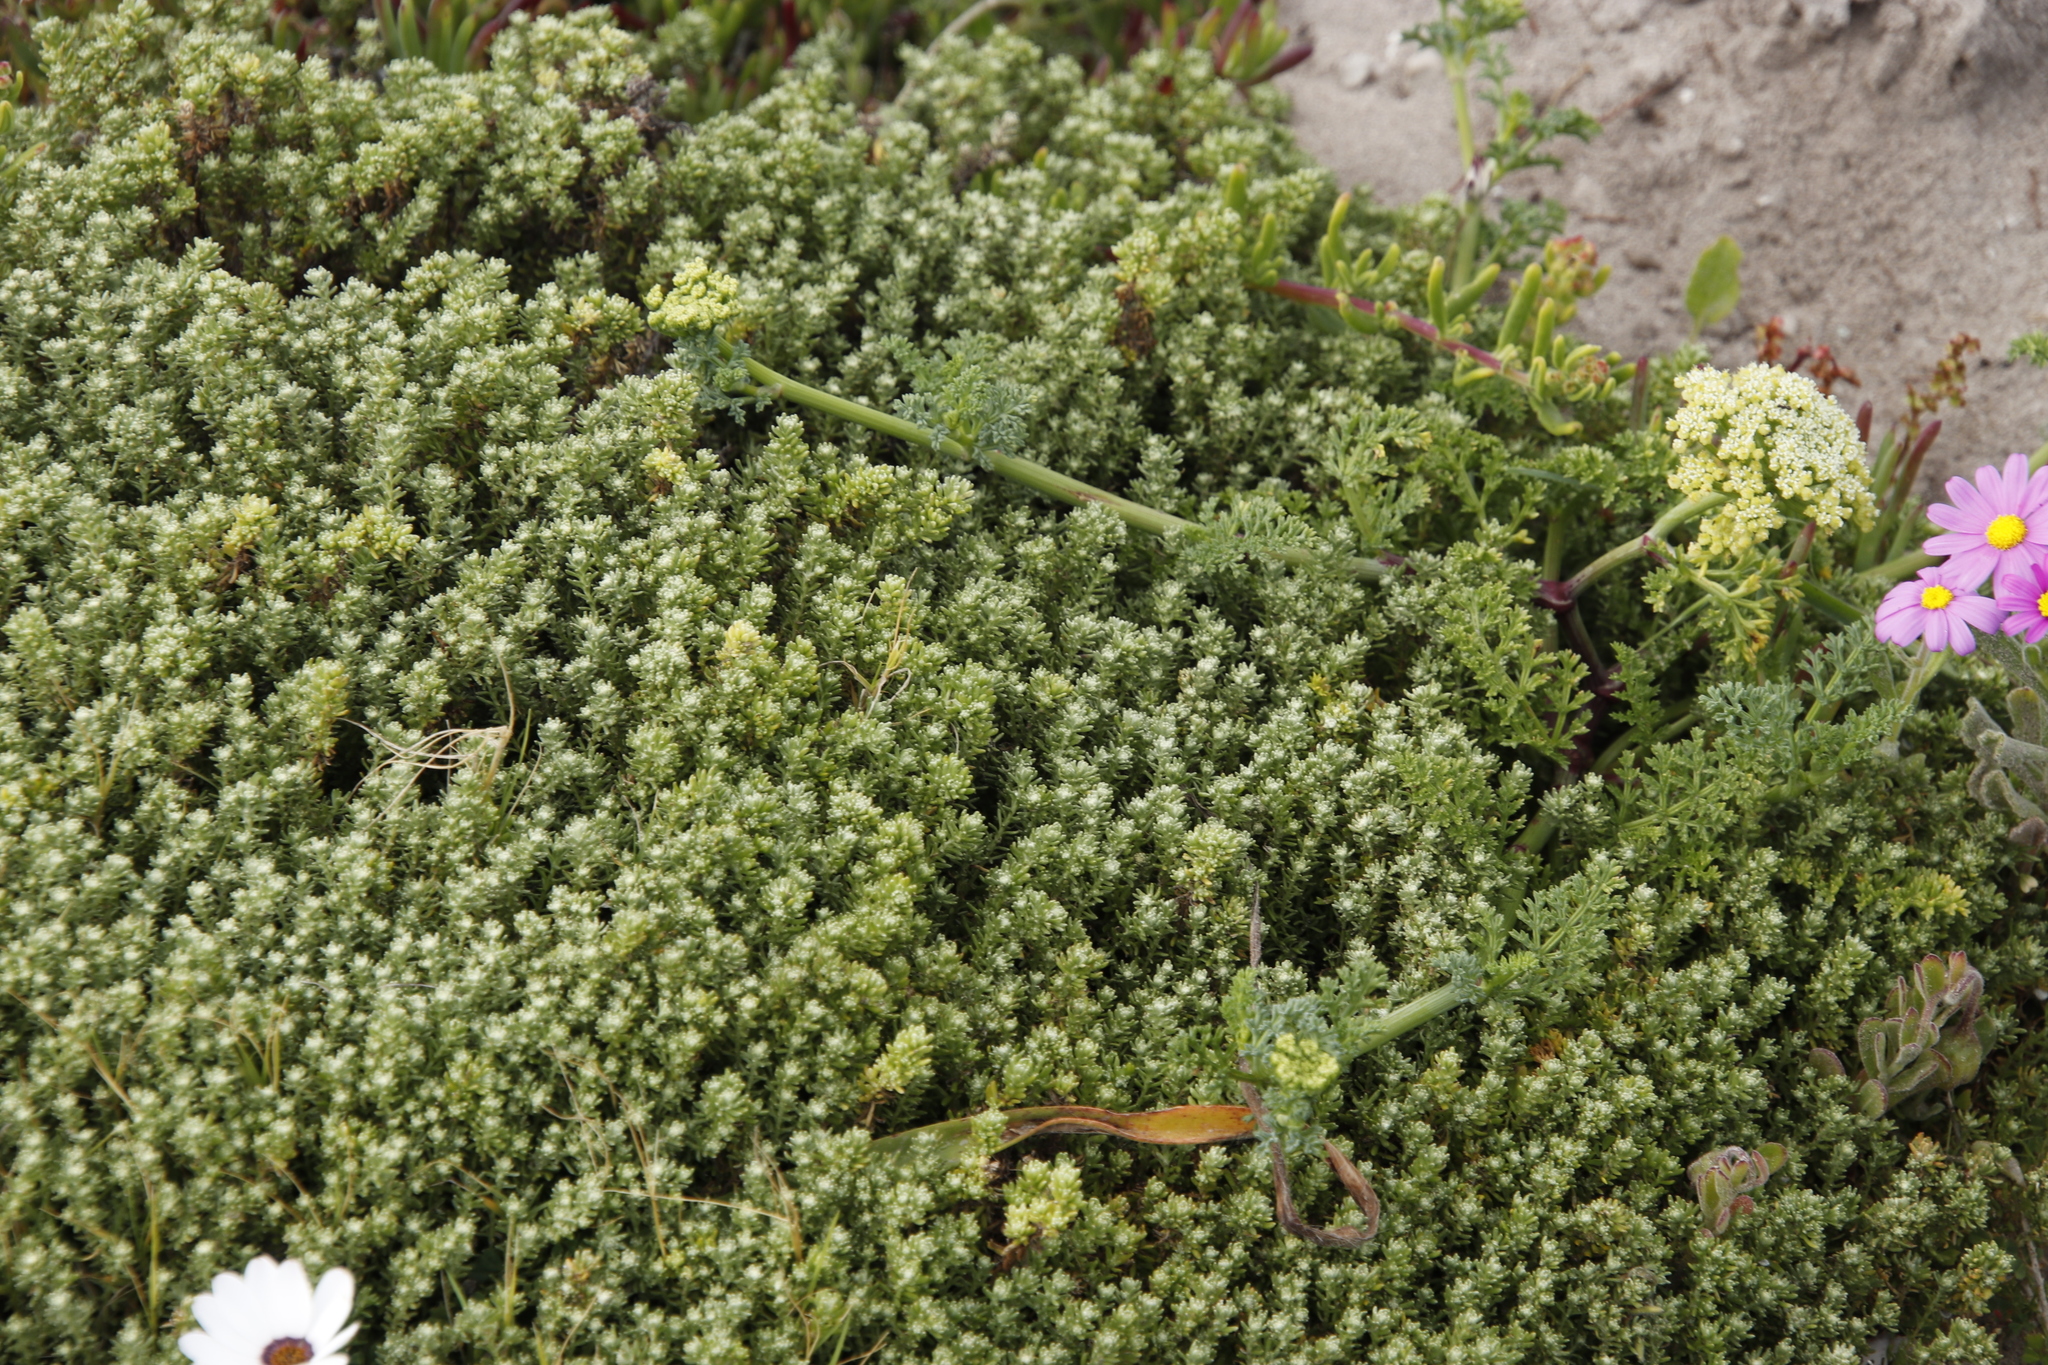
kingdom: Plantae
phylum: Tracheophyta
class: Magnoliopsida
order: Apiales
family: Apiaceae
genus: Dasispermum
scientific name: Dasispermum suffruticosum
